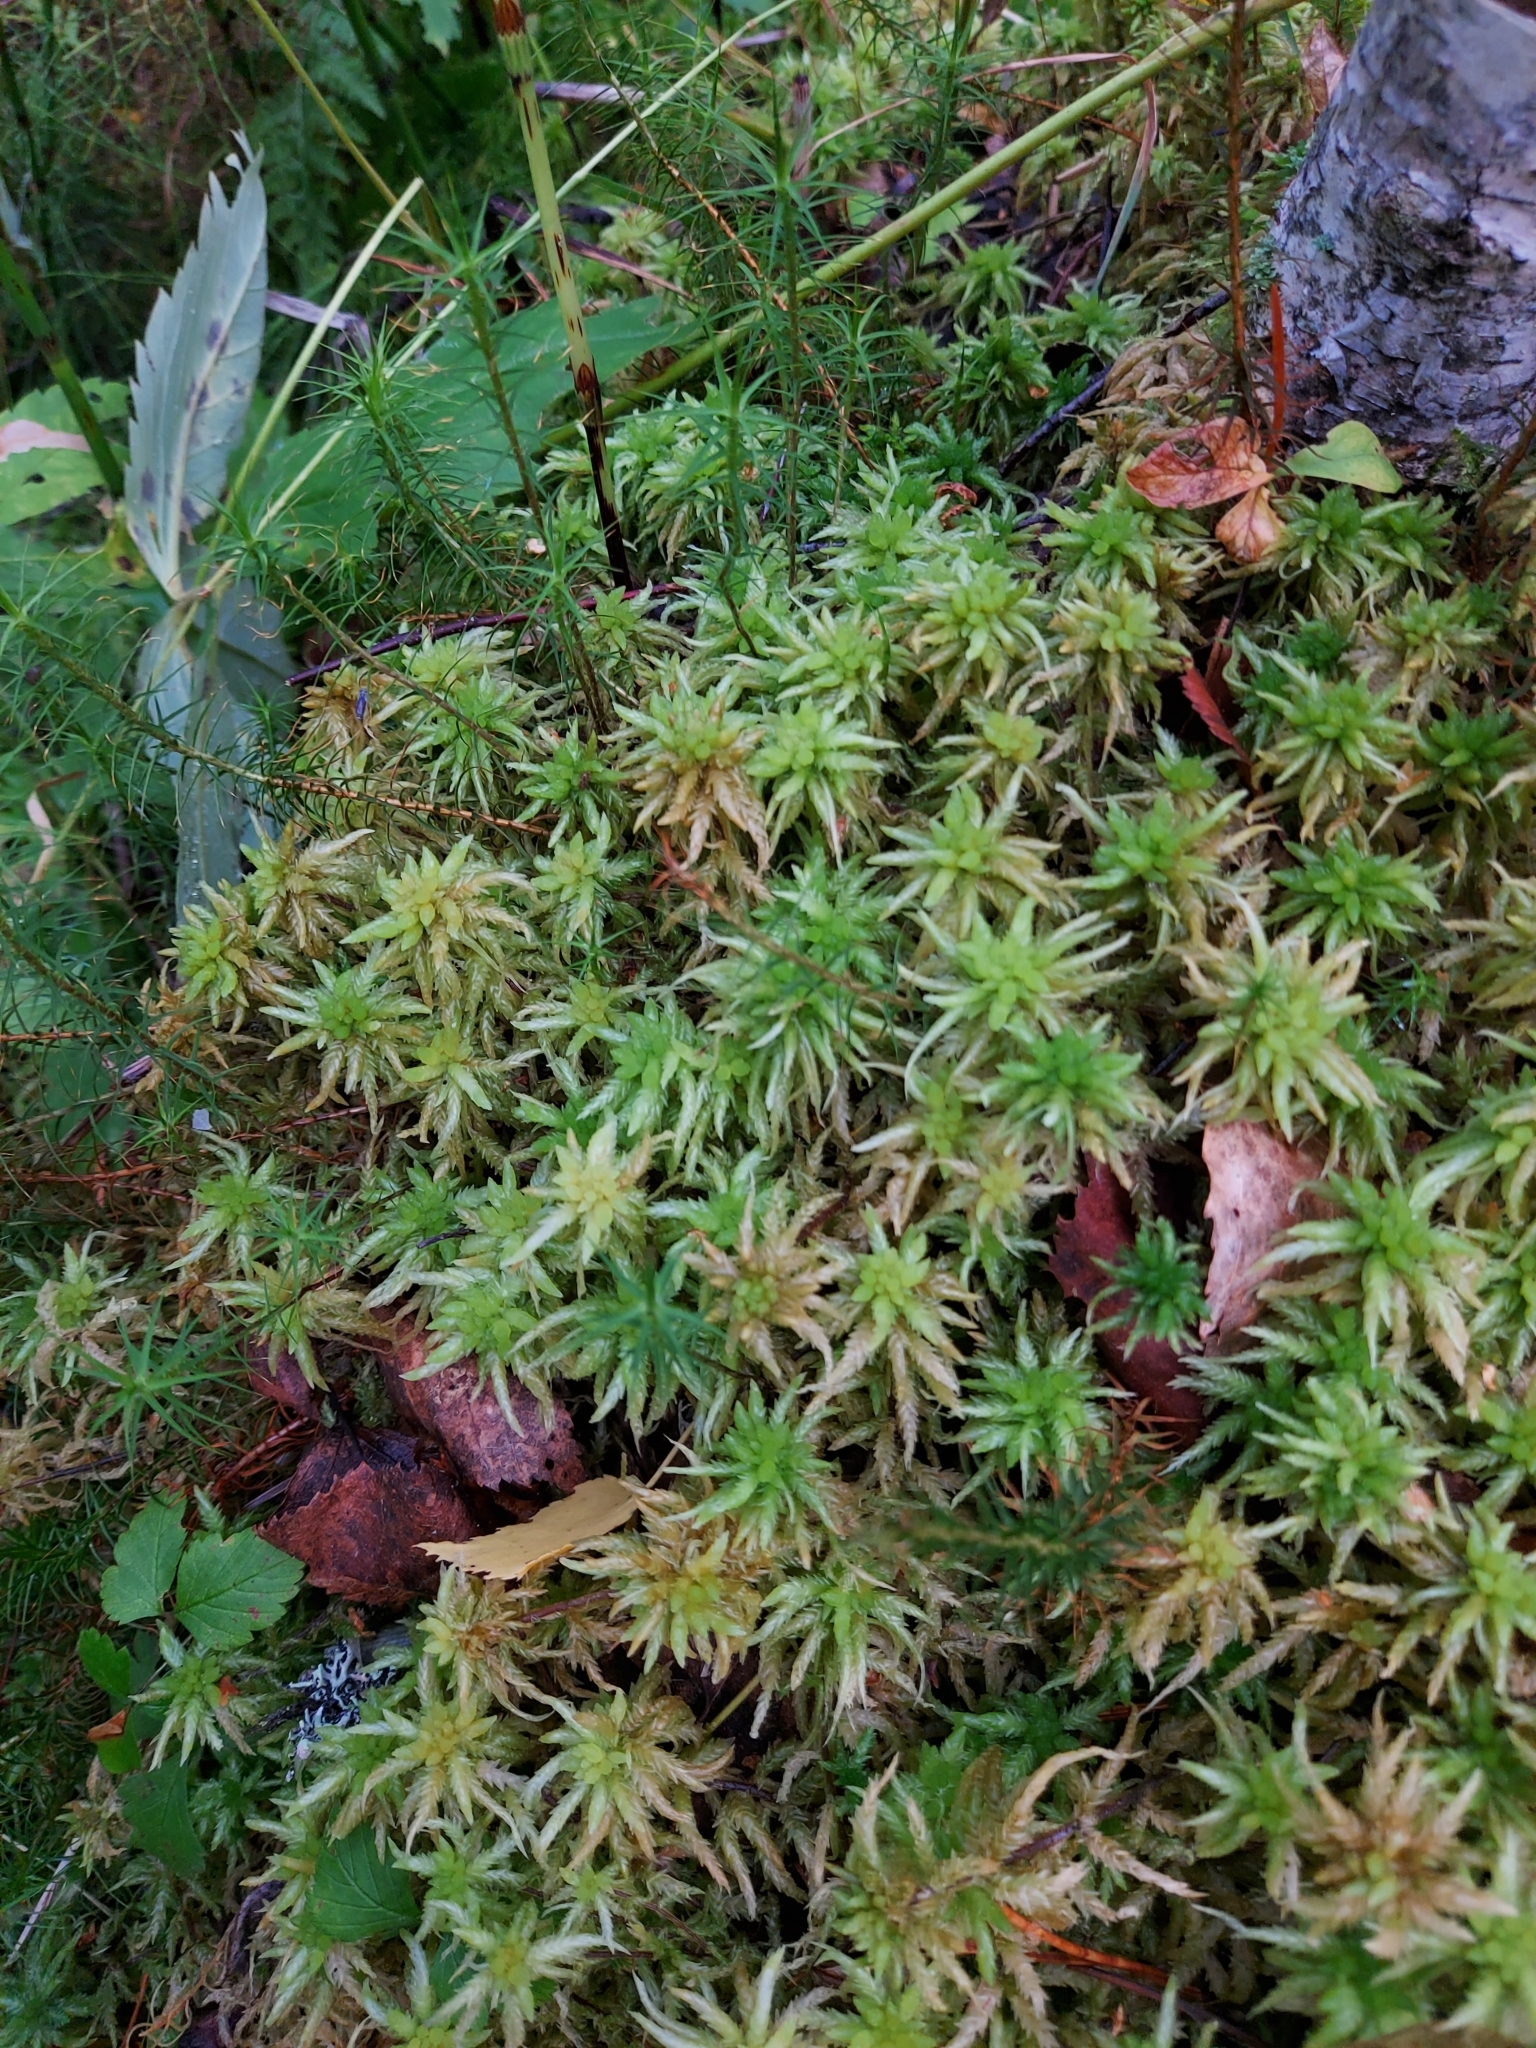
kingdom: Plantae
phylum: Bryophyta
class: Sphagnopsida
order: Sphagnales
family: Sphagnaceae
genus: Sphagnum
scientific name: Sphagnum centrale
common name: Central peat moss
